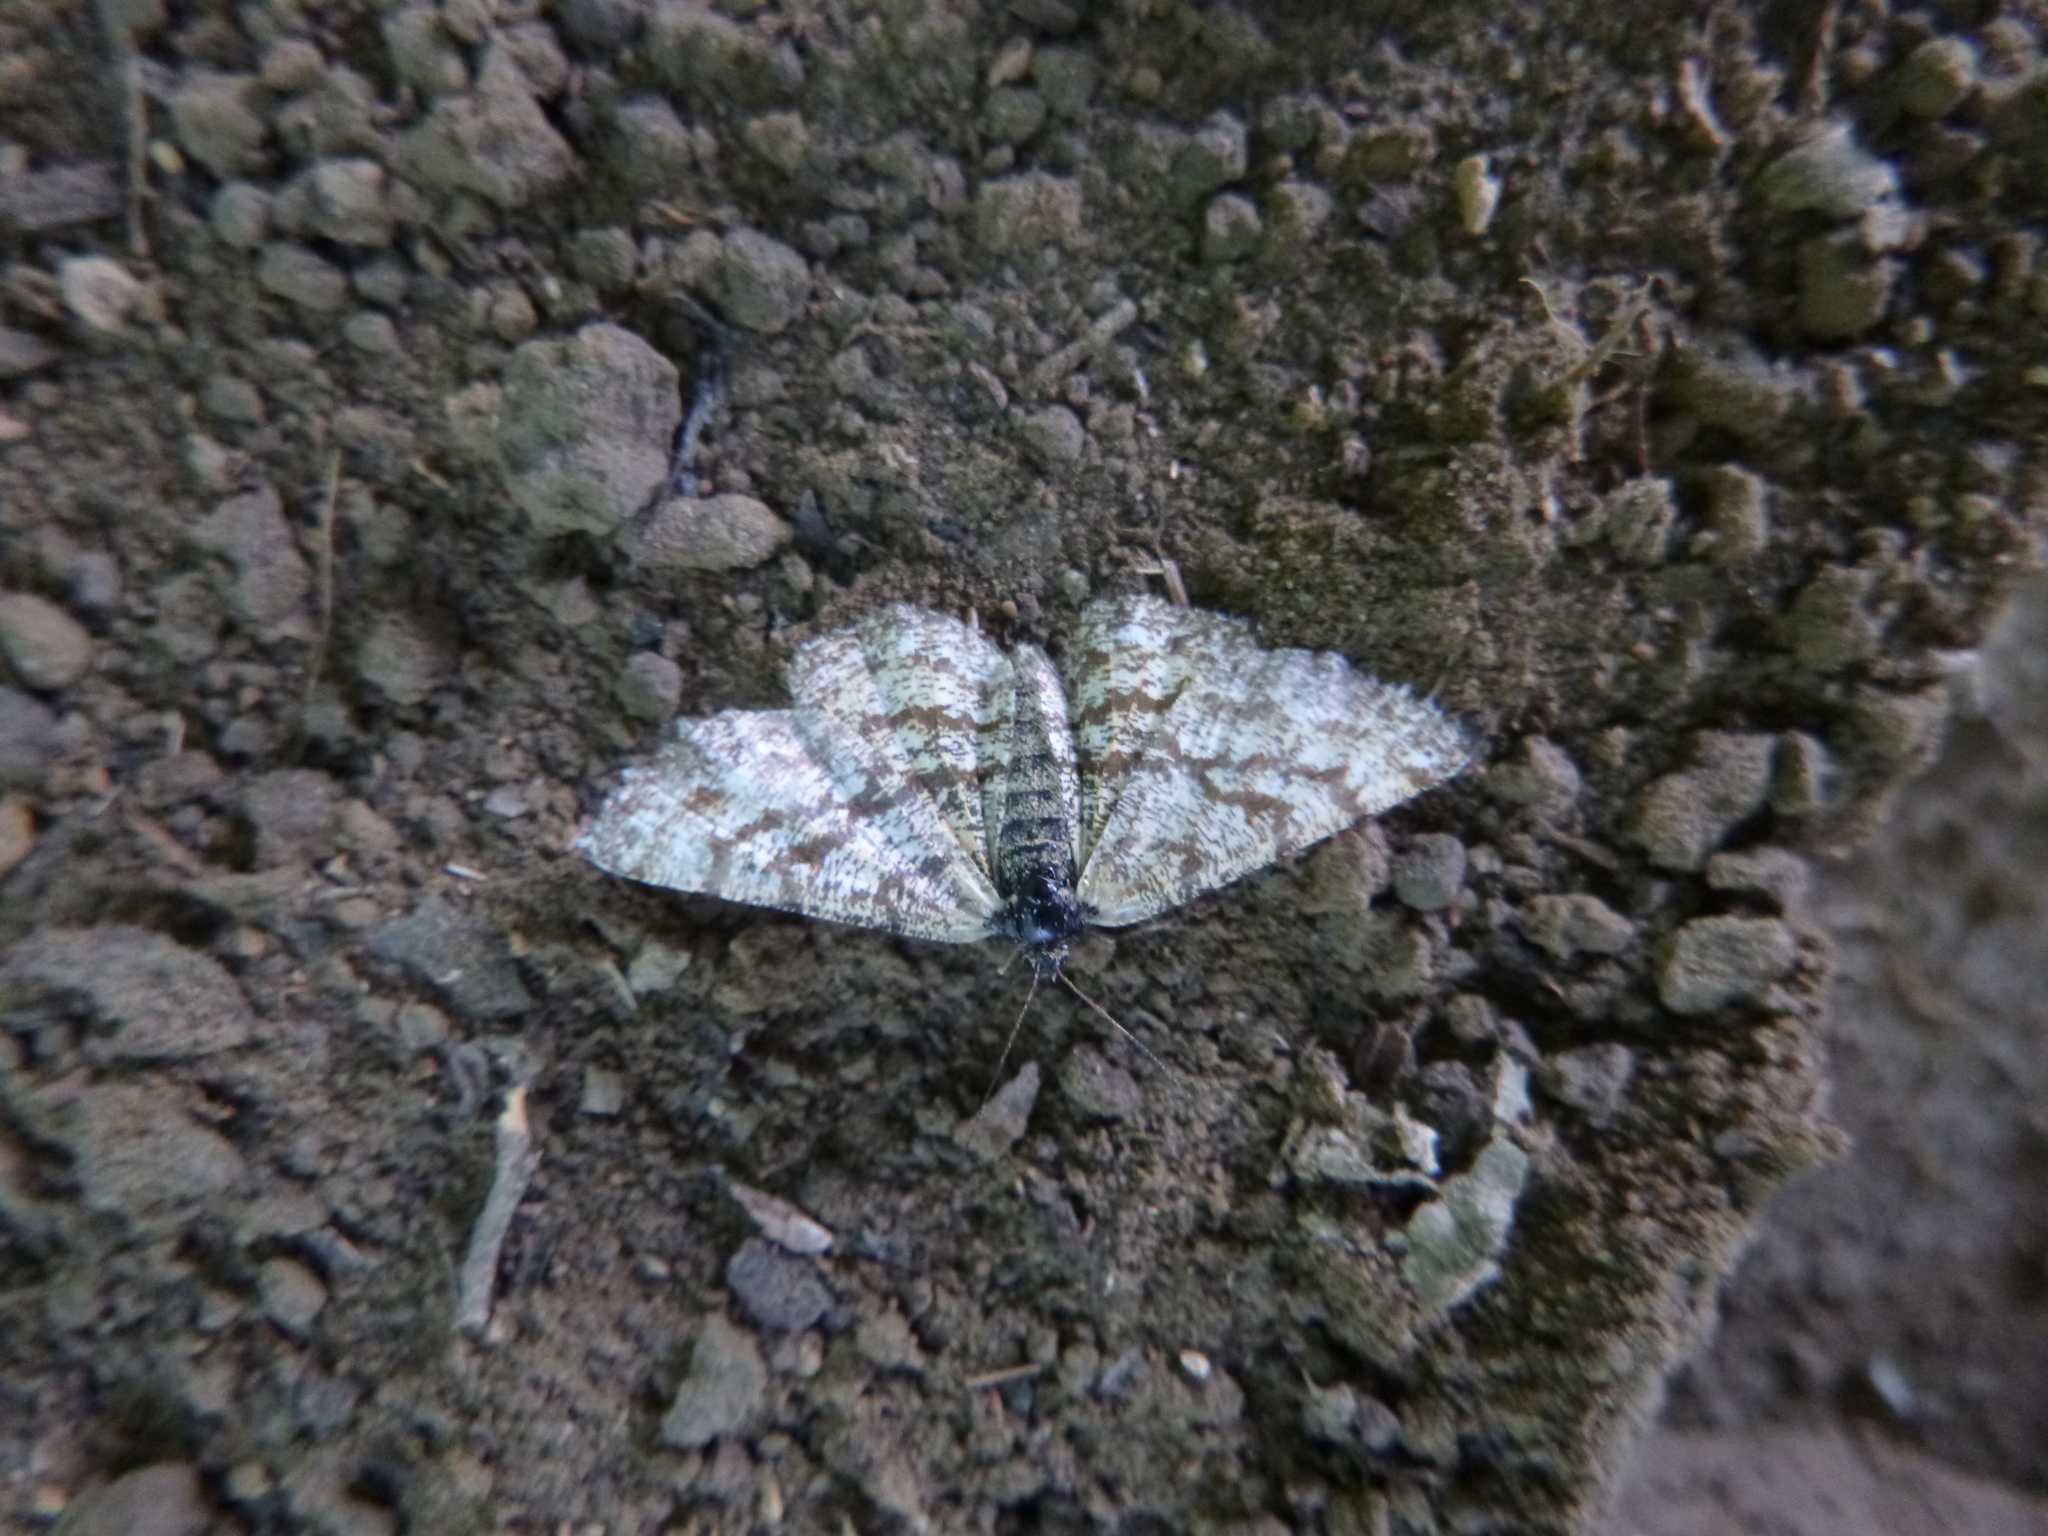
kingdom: Animalia
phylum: Arthropoda
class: Insecta
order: Lepidoptera
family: Geometridae
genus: Ematurga
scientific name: Ematurga atomaria
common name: Common heath
